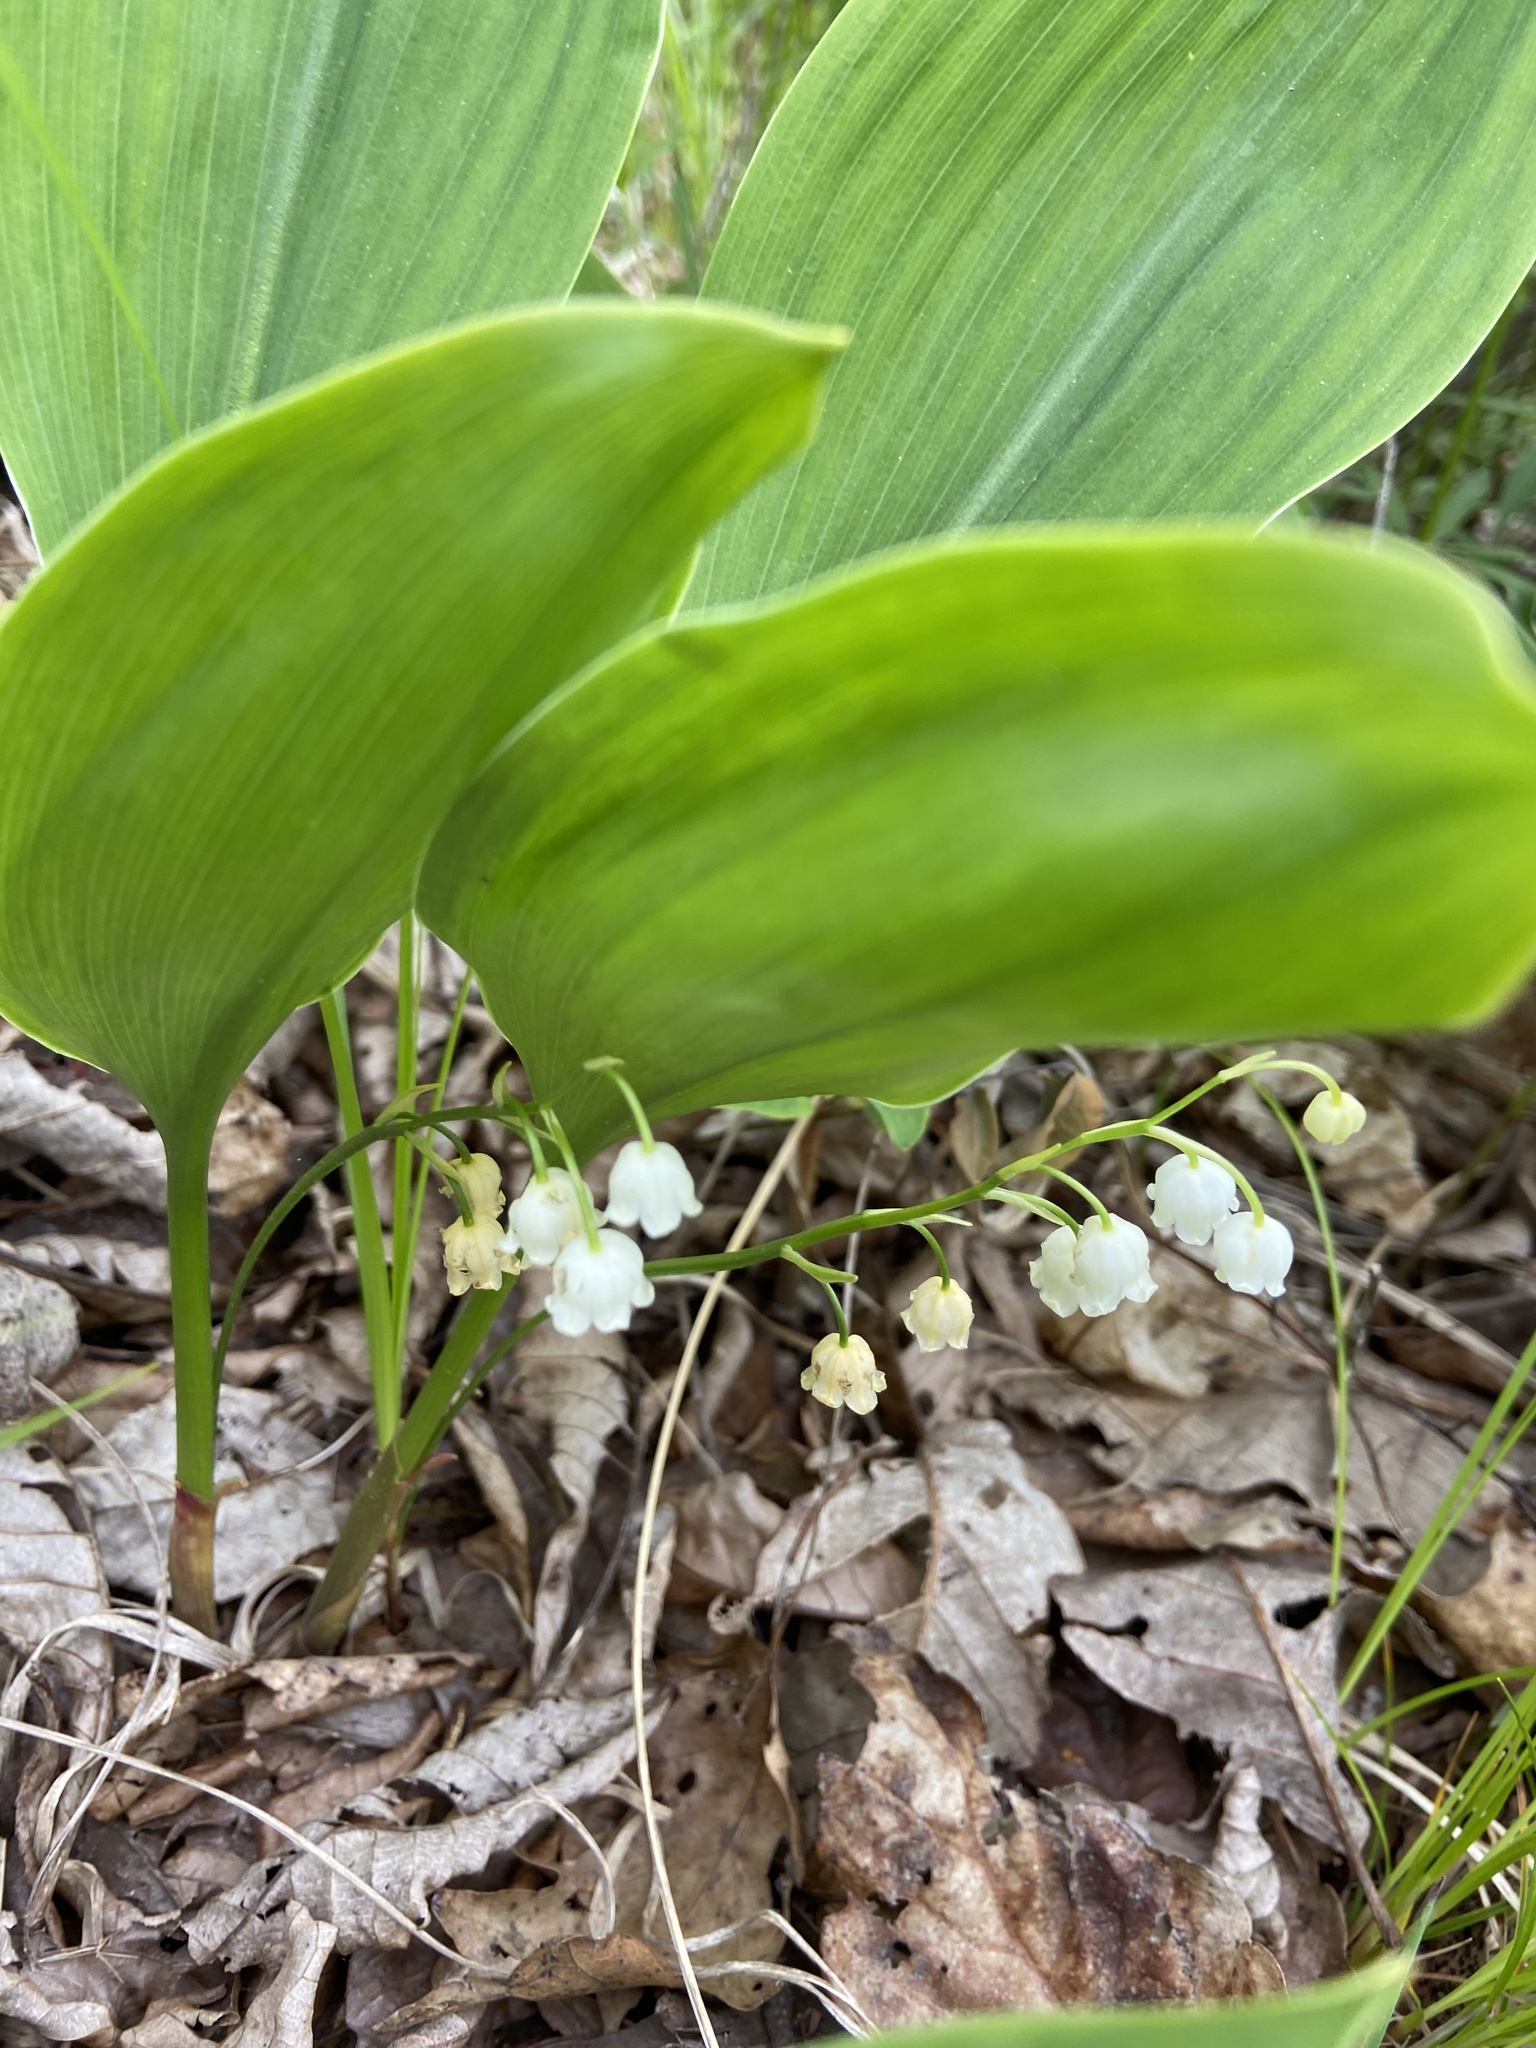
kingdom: Plantae
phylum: Tracheophyta
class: Liliopsida
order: Asparagales
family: Asparagaceae
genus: Convallaria
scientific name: Convallaria pseudomajalis
